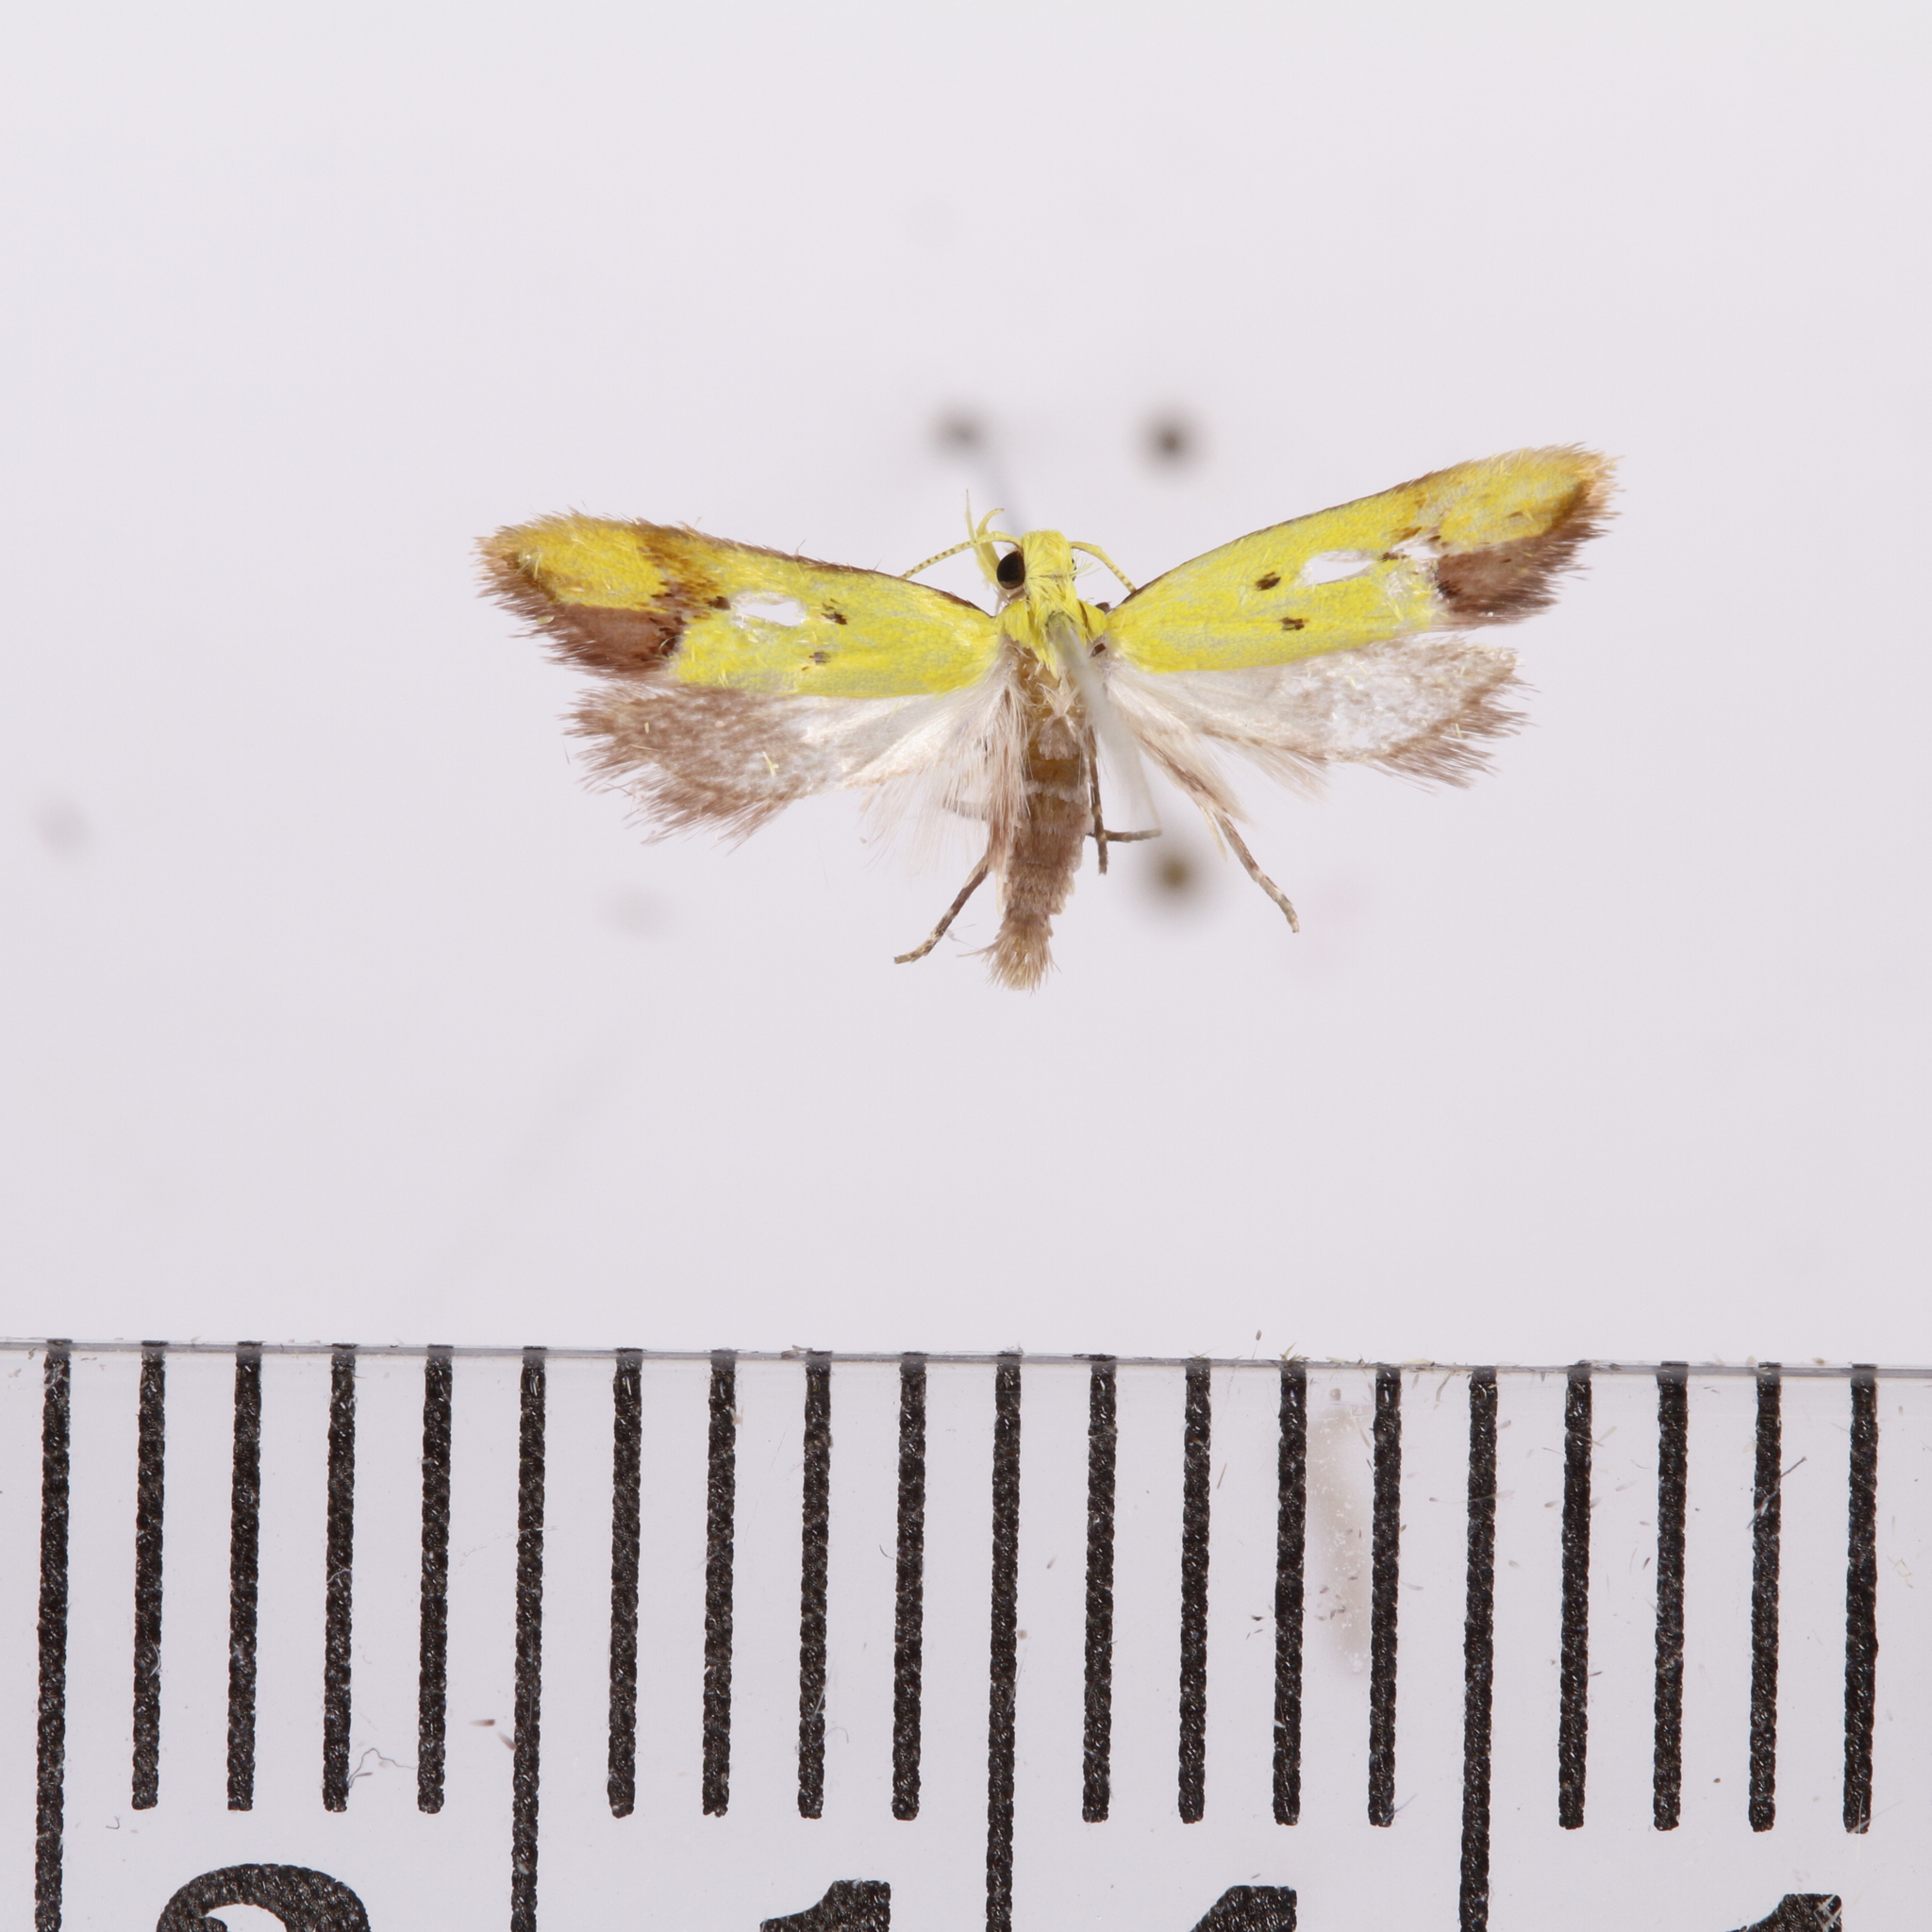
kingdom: Animalia
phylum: Arthropoda
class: Insecta
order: Lepidoptera
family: Oecophoridae
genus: Gymnobathra
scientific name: Gymnobathra flavidella
